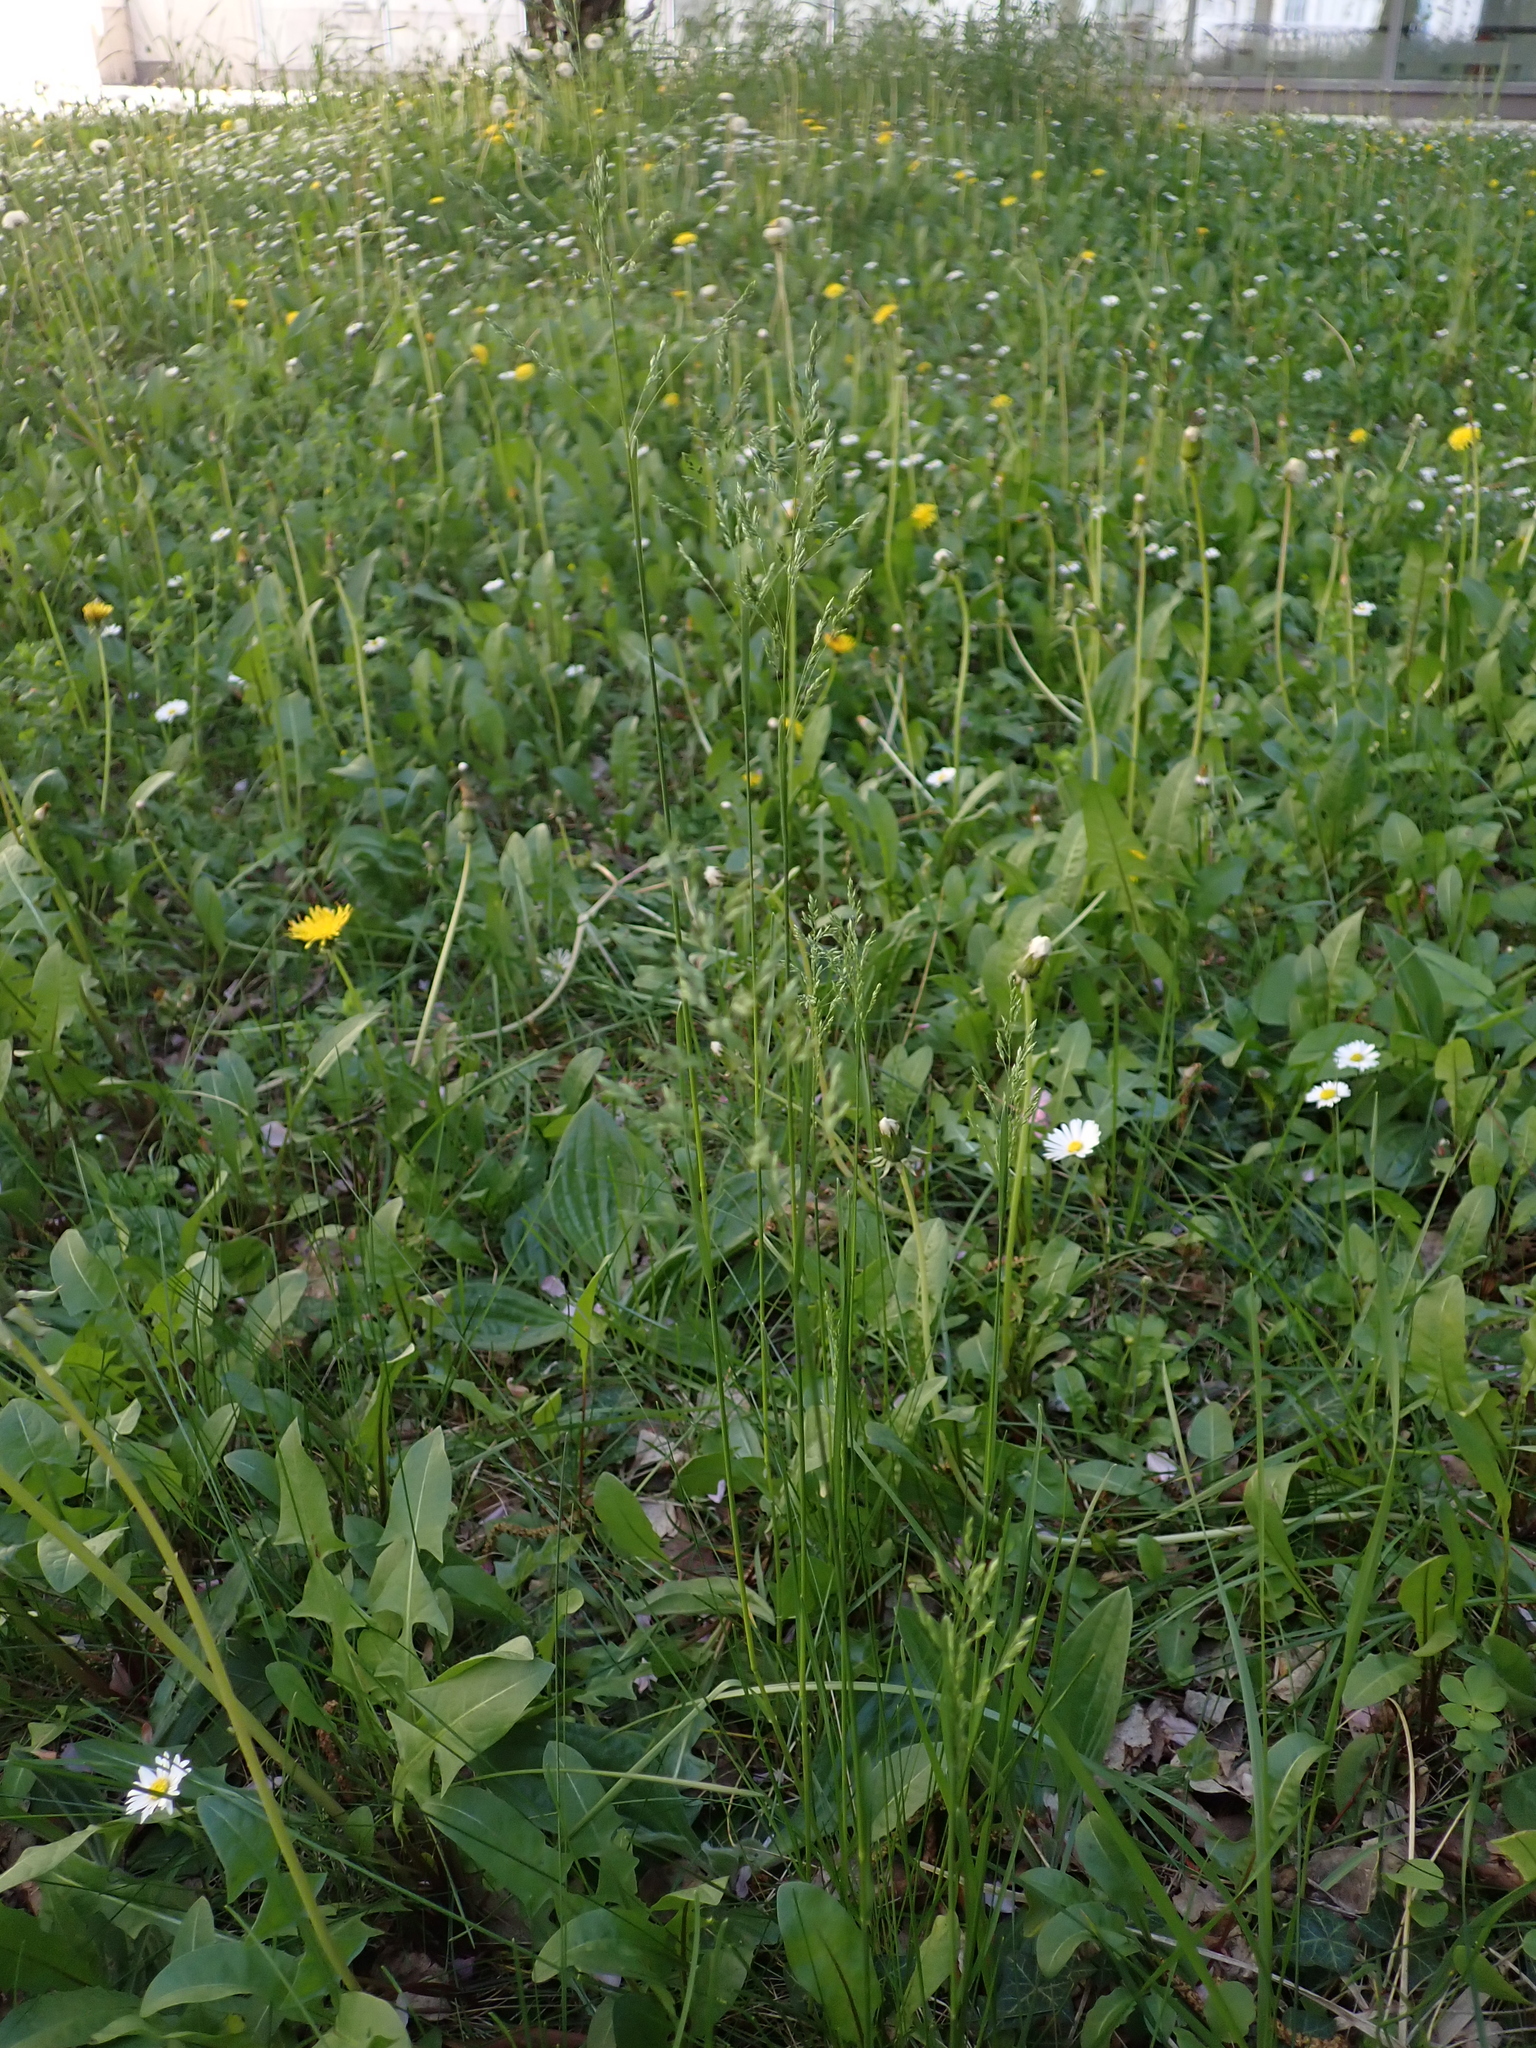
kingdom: Plantae
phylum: Tracheophyta
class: Liliopsida
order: Poales
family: Poaceae
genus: Poa
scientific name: Poa angustifolia
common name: Narrow-leaved meadow-grass
